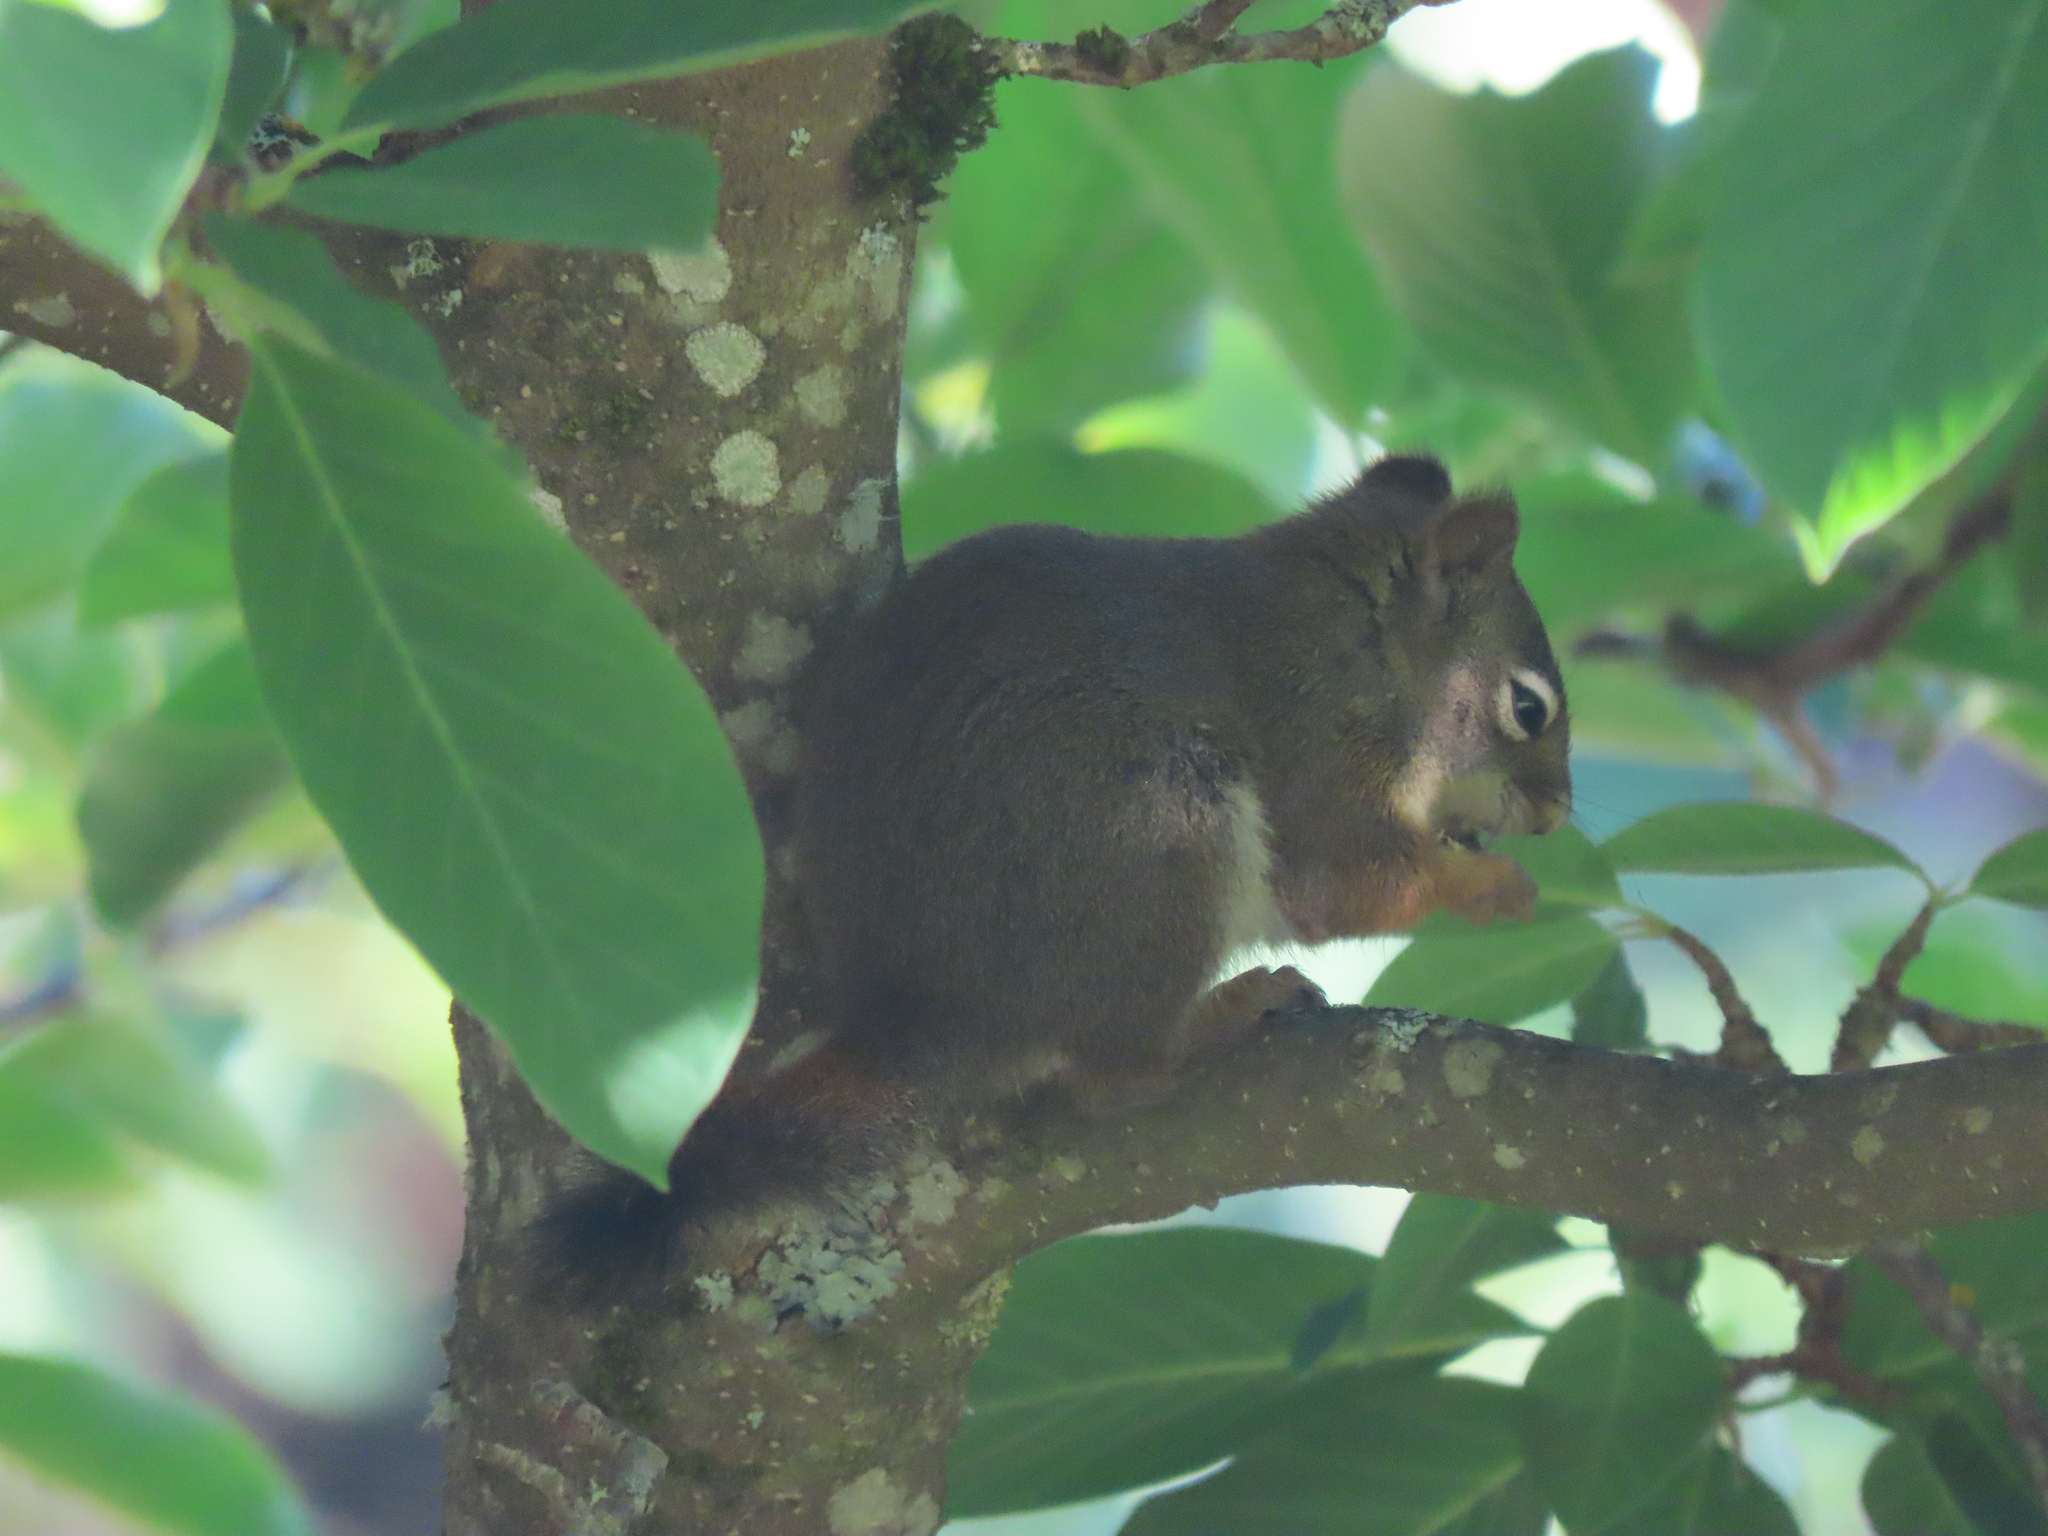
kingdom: Animalia
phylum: Chordata
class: Mammalia
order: Rodentia
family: Sciuridae
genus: Tamiasciurus
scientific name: Tamiasciurus hudsonicus
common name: Red squirrel
